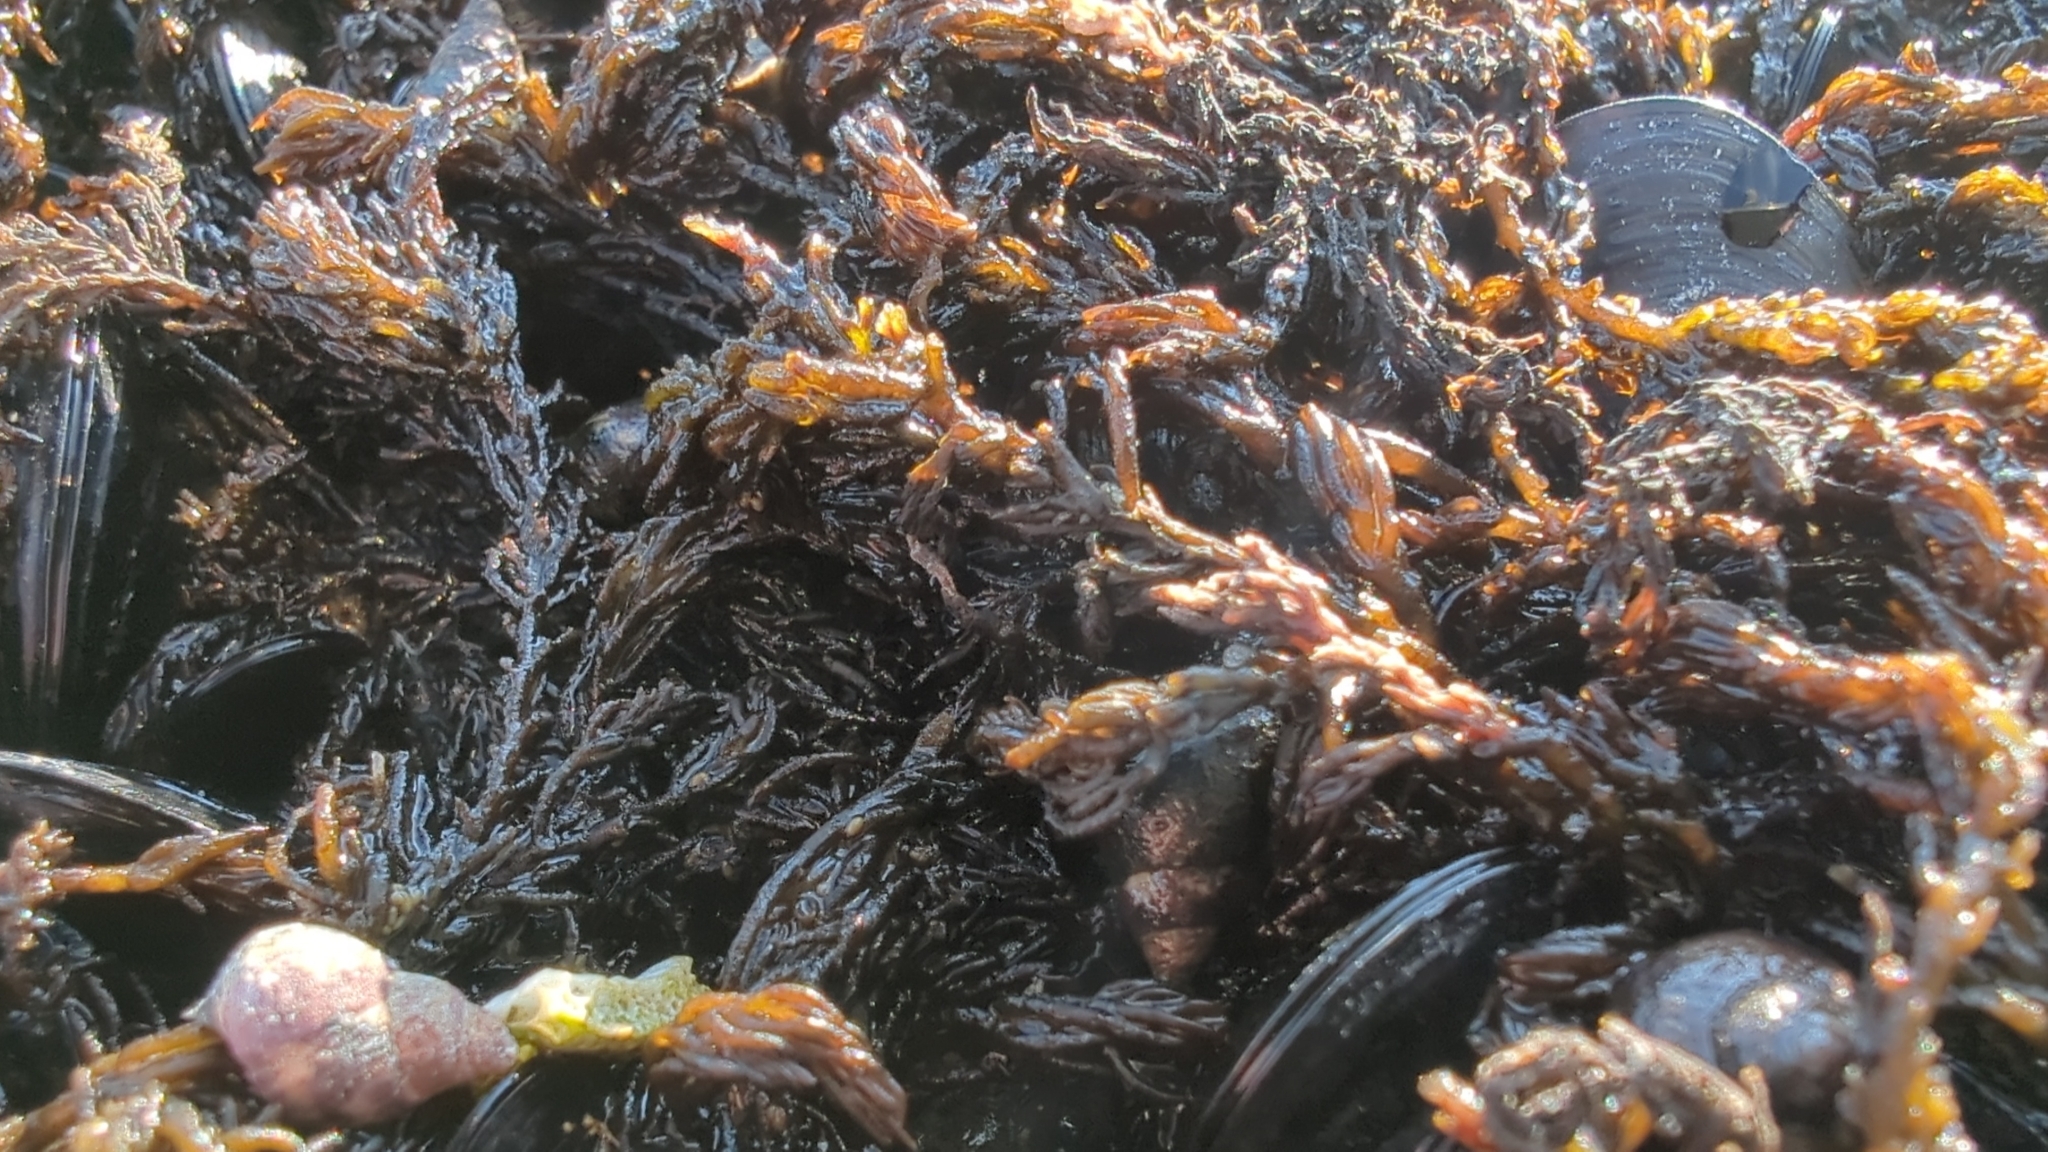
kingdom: Plantae
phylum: Rhodophyta
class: Florideophyceae
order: Ceramiales
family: Rhodomelaceae
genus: Neorhodomela
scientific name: Neorhodomela larix
